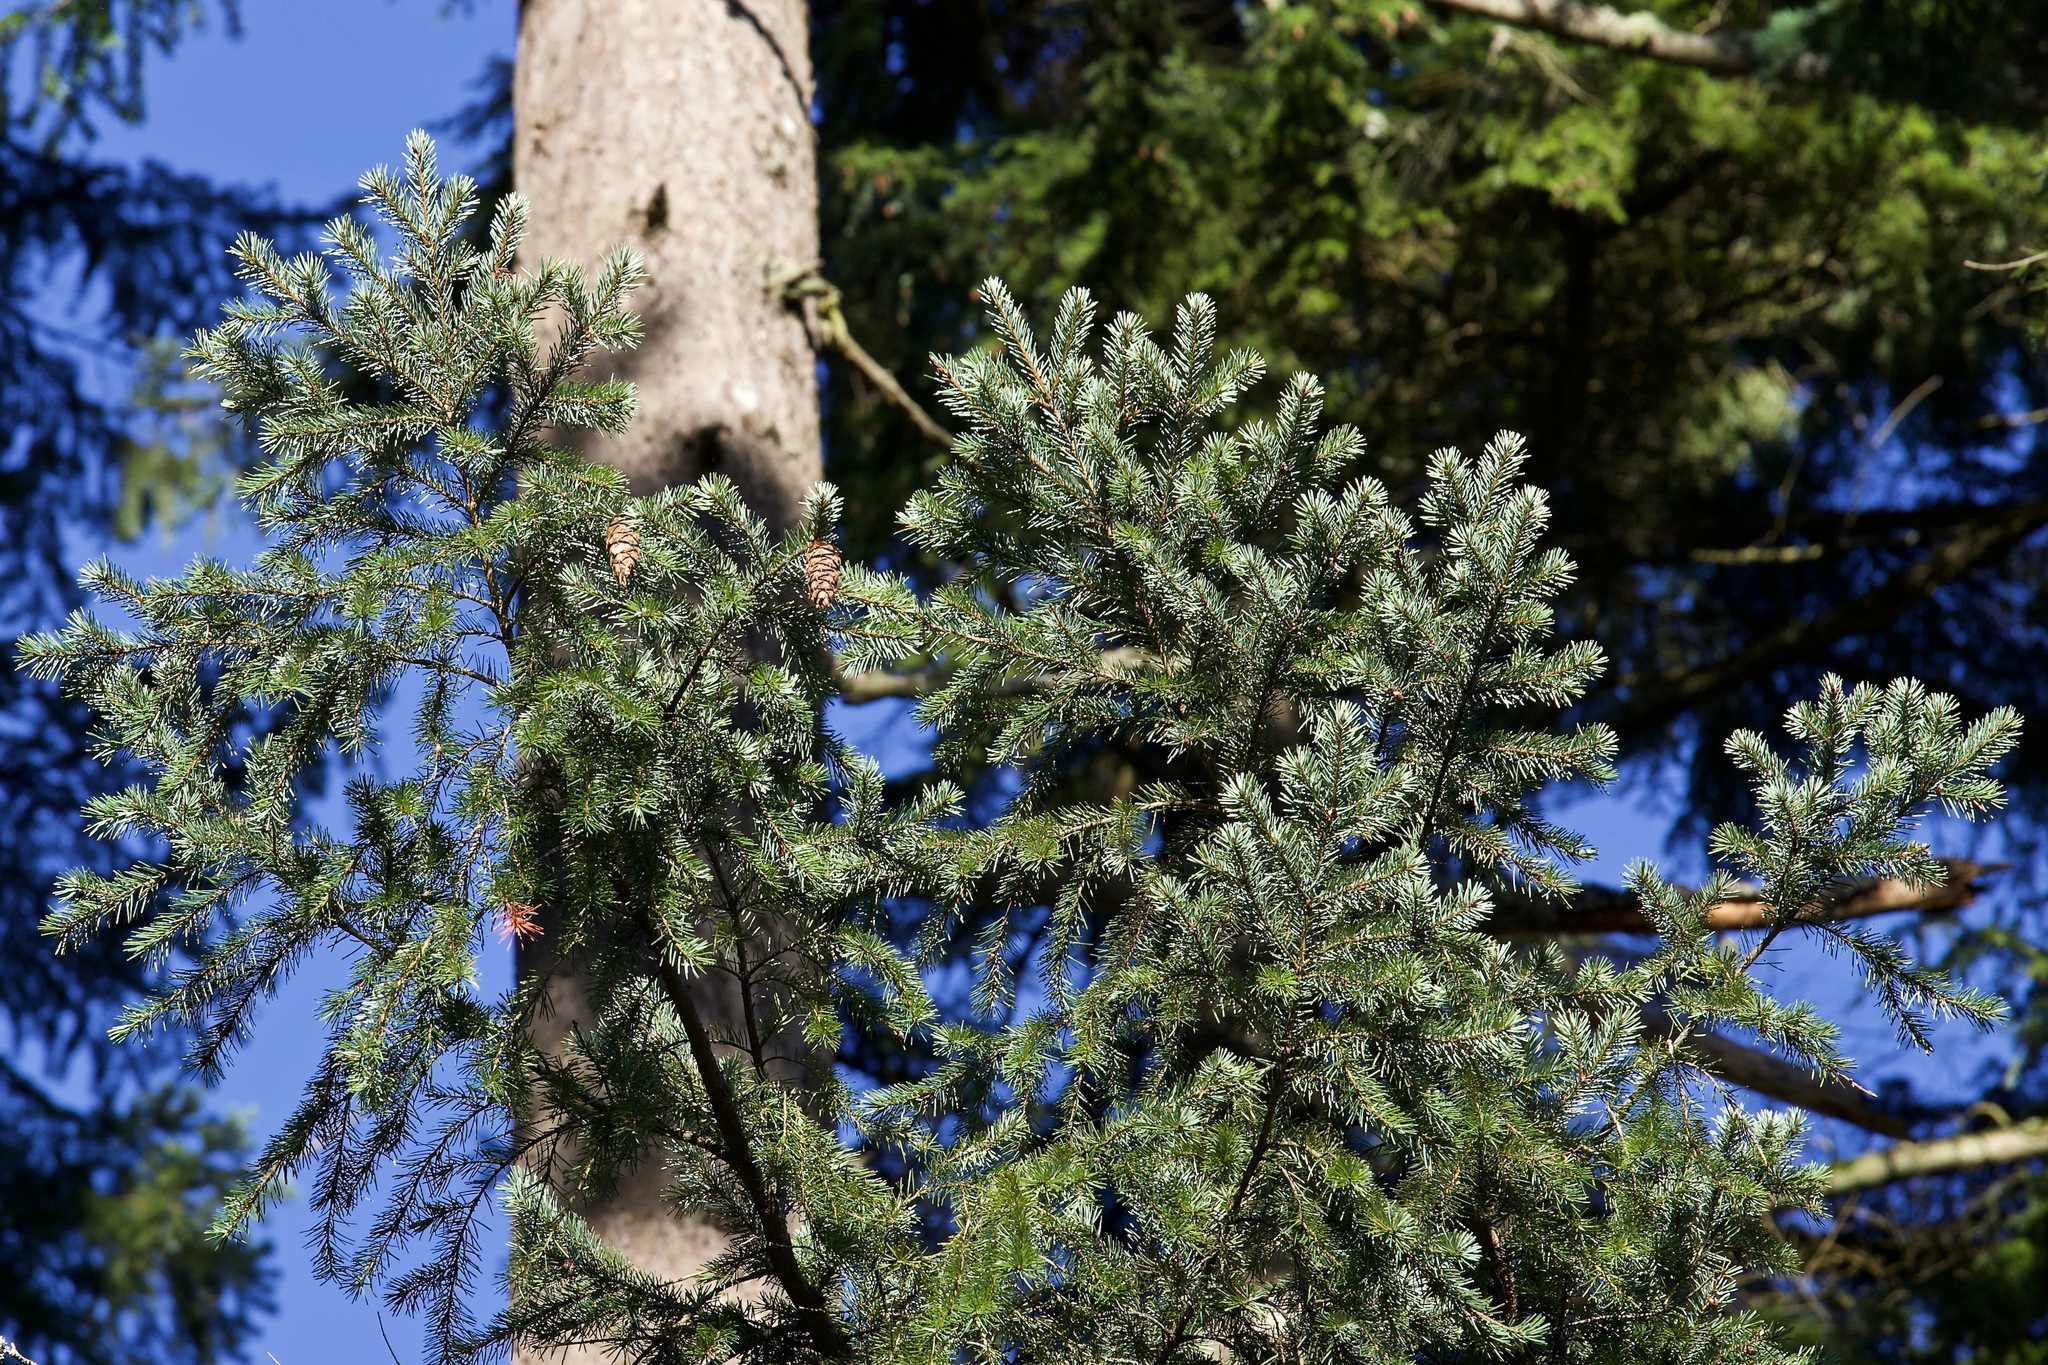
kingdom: Plantae
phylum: Tracheophyta
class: Pinopsida
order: Pinales
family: Pinaceae
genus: Pseudotsuga
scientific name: Pseudotsuga menziesii
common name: Douglas fir
